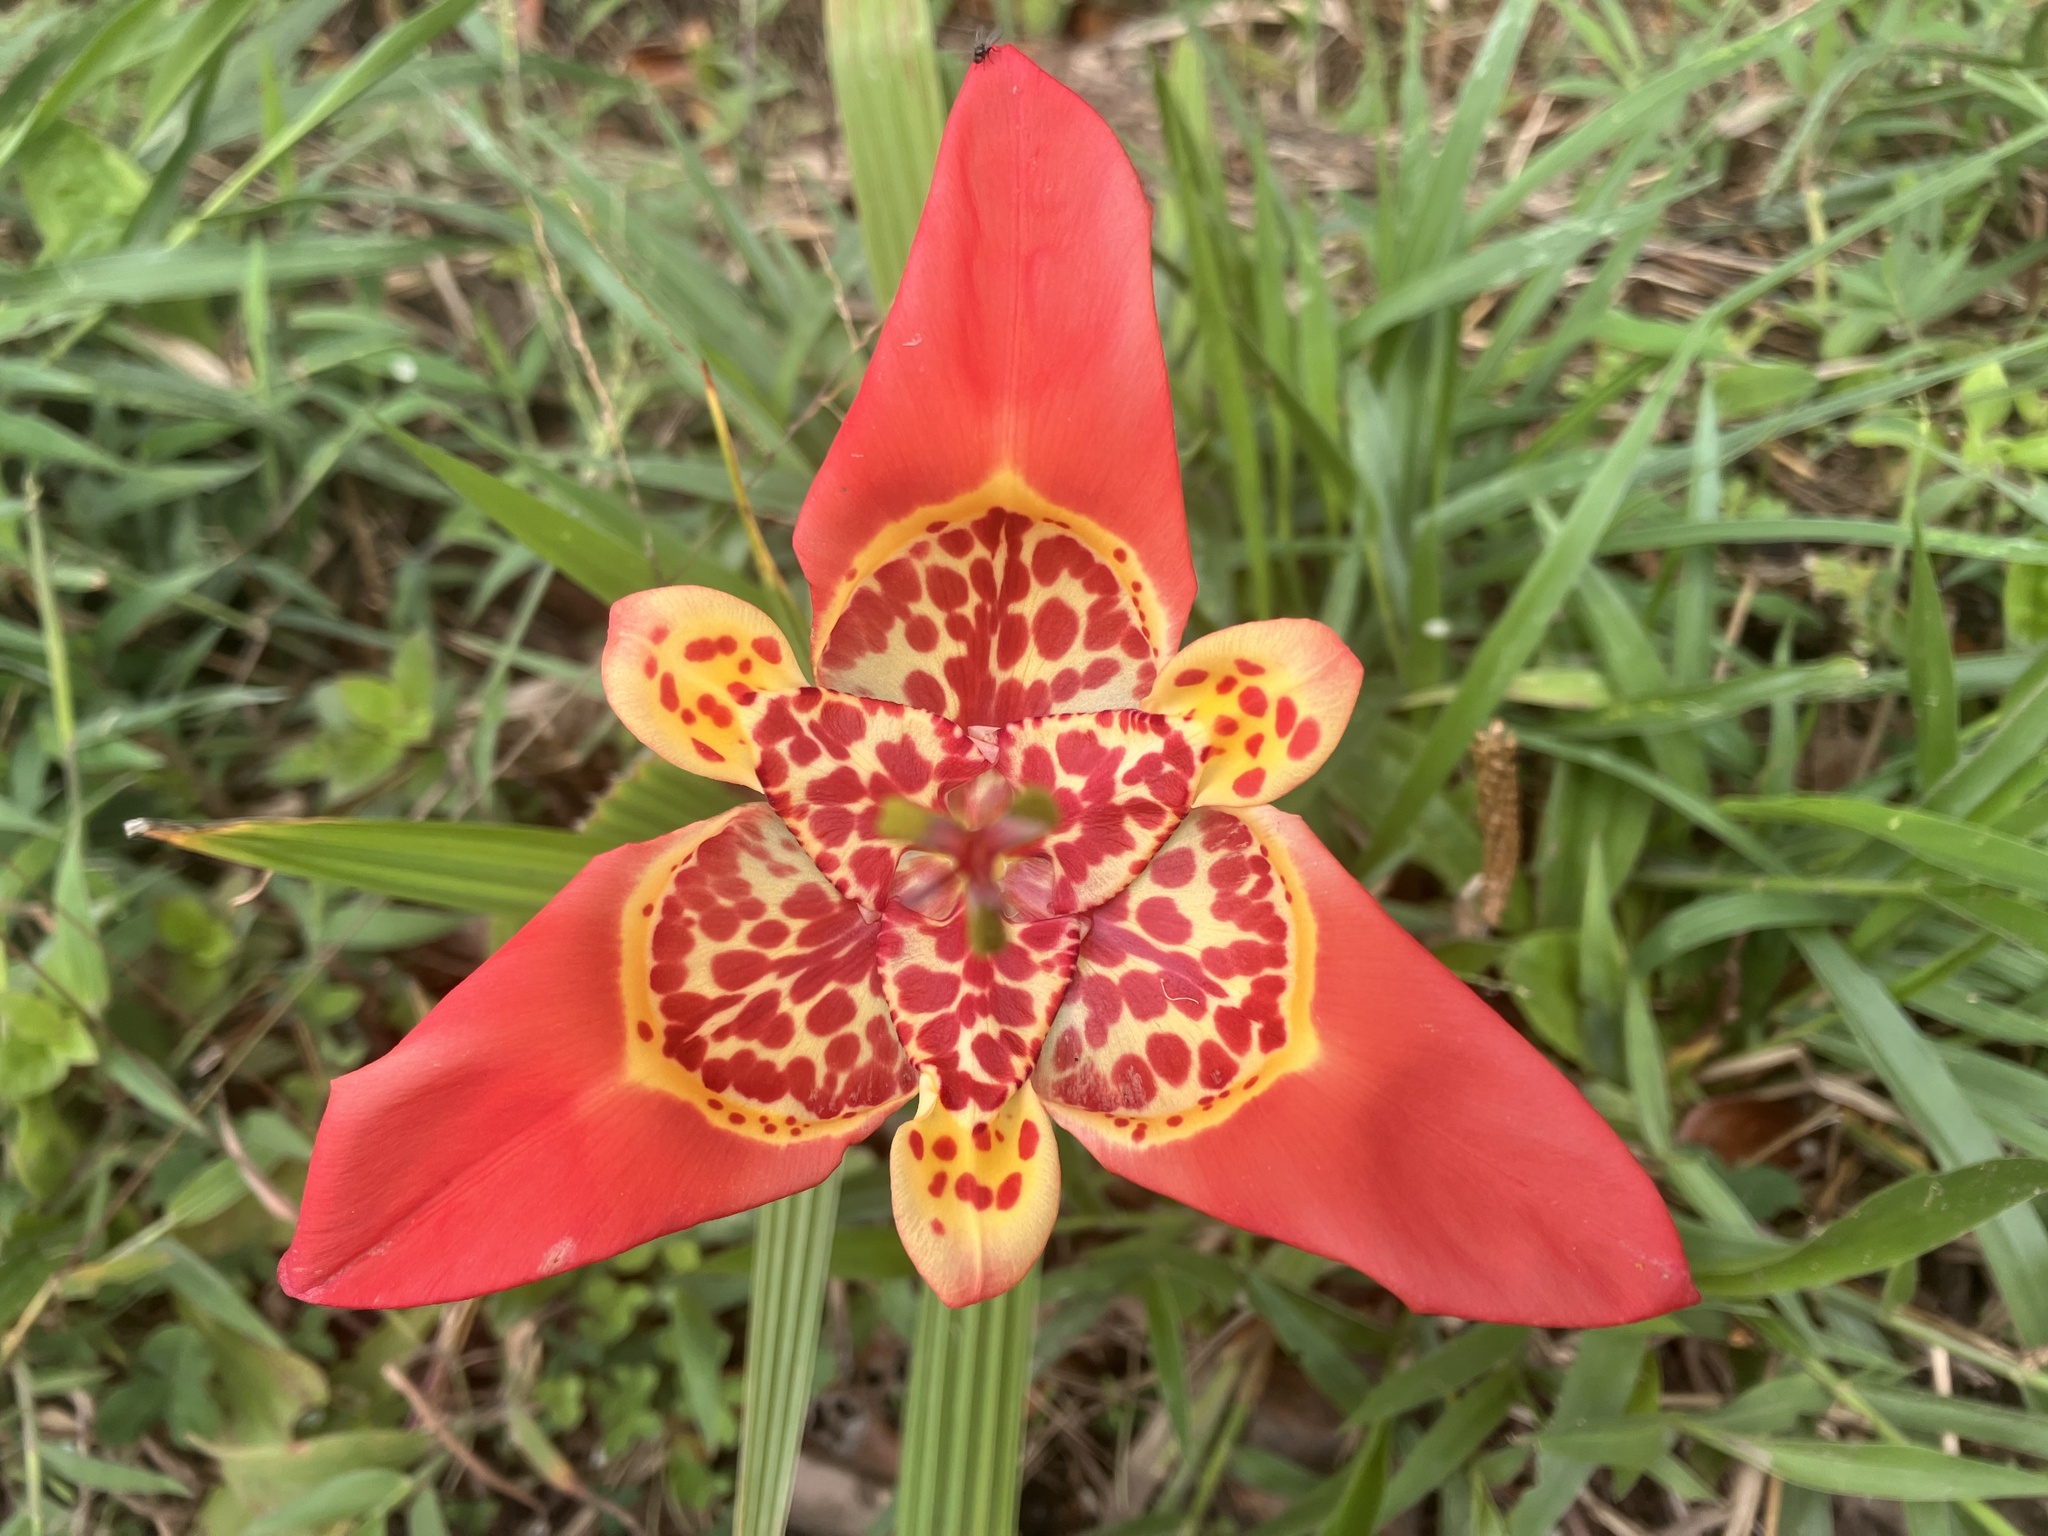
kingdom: Plantae
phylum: Tracheophyta
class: Liliopsida
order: Asparagales
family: Iridaceae
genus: Tigridia
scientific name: Tigridia pavonia
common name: Peacock-flower
